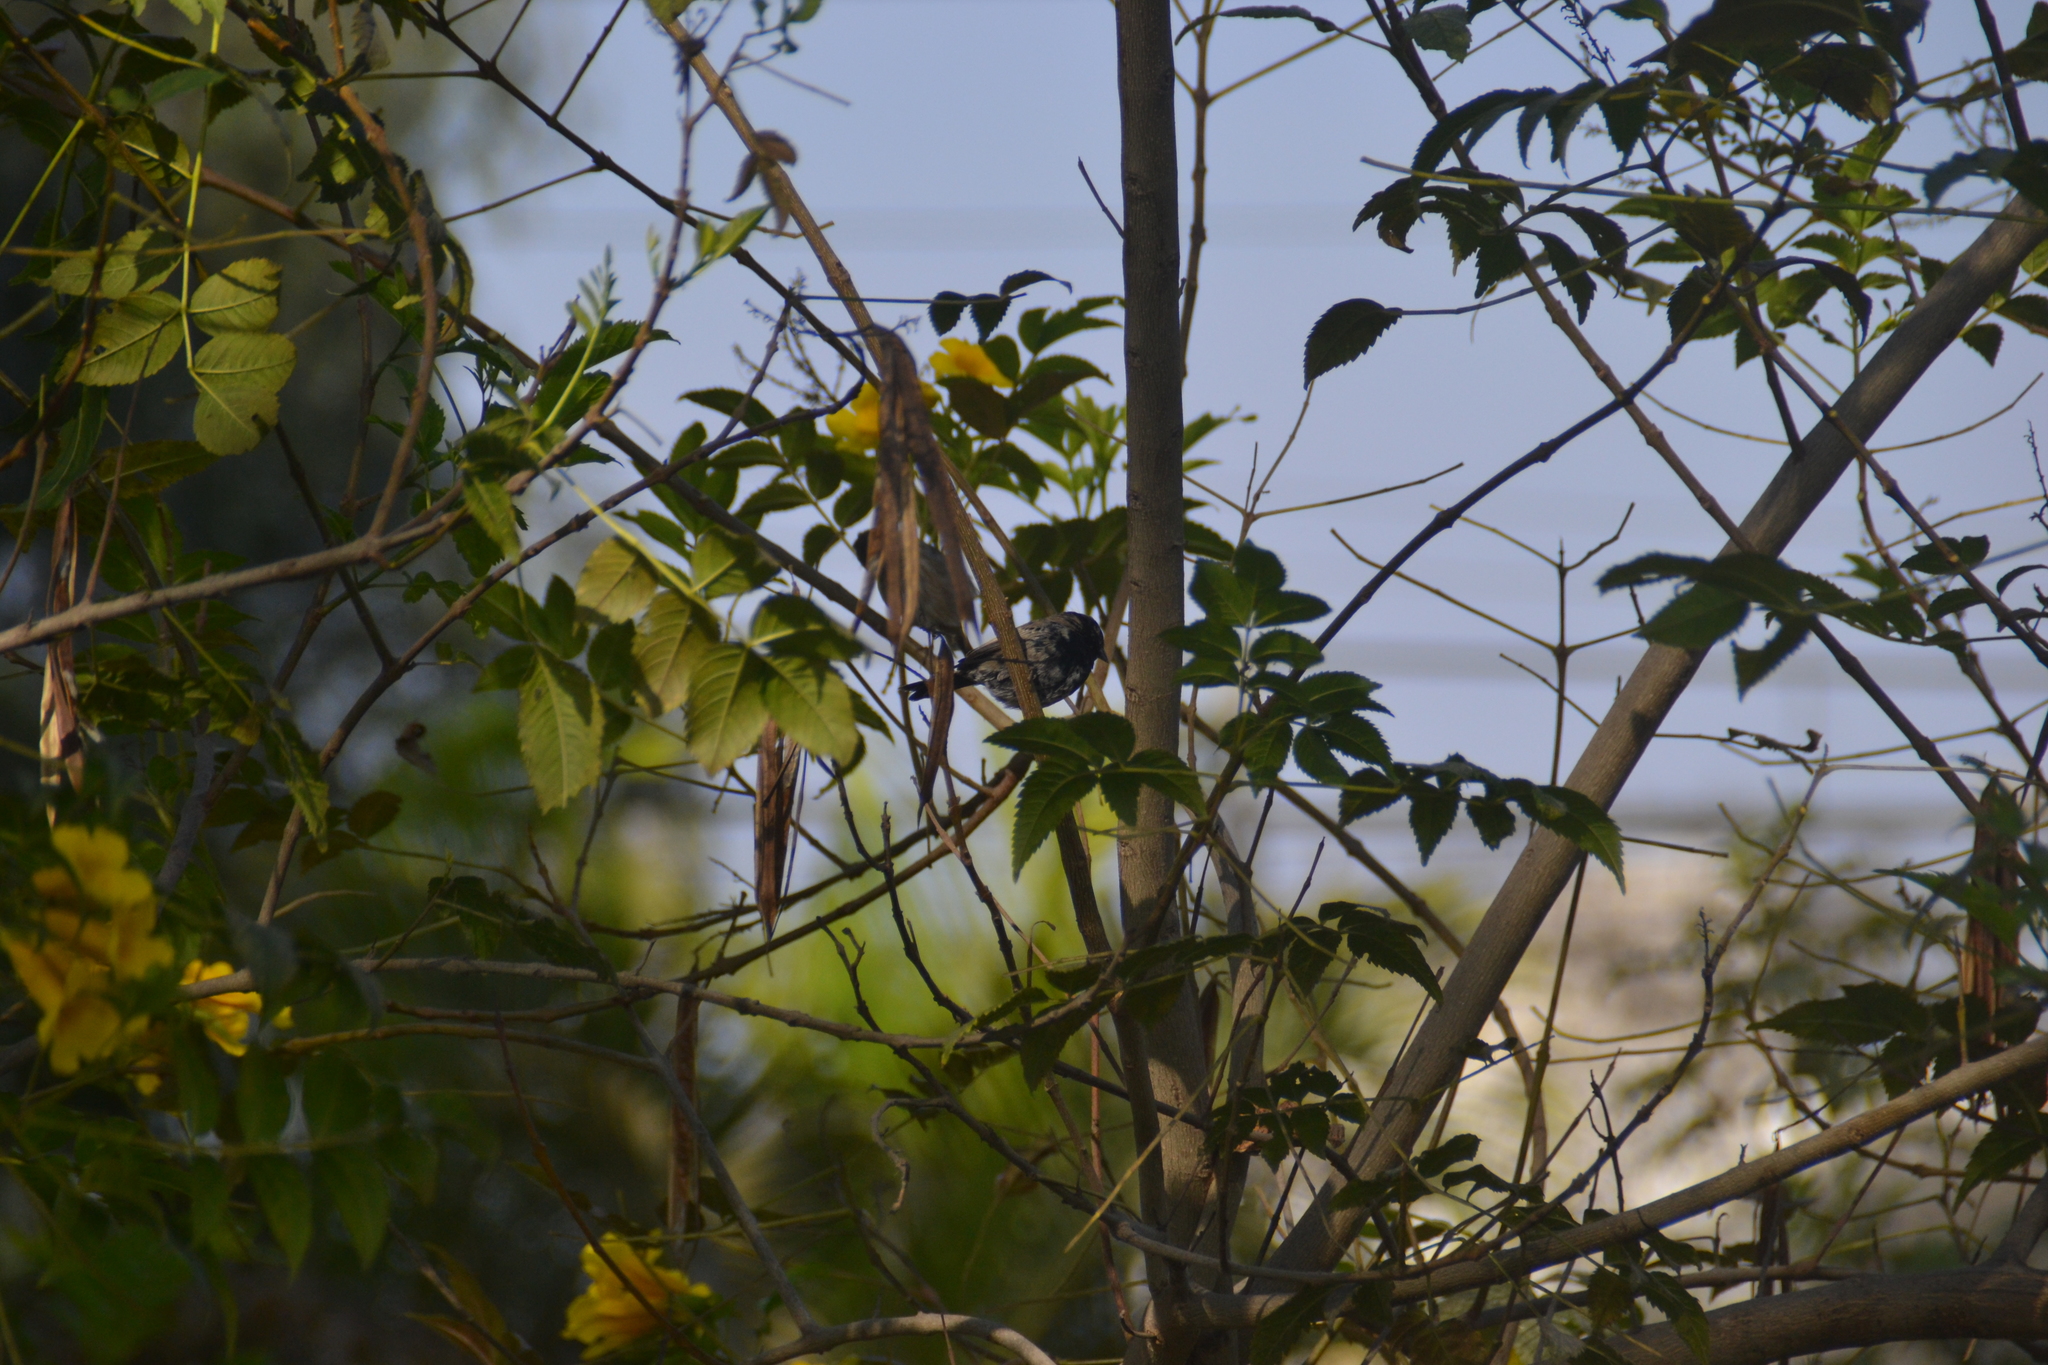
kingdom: Animalia
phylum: Chordata
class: Aves
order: Passeriformes
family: Thraupidae
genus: Volatinia
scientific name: Volatinia jacarina
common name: Blue-black grassquit
